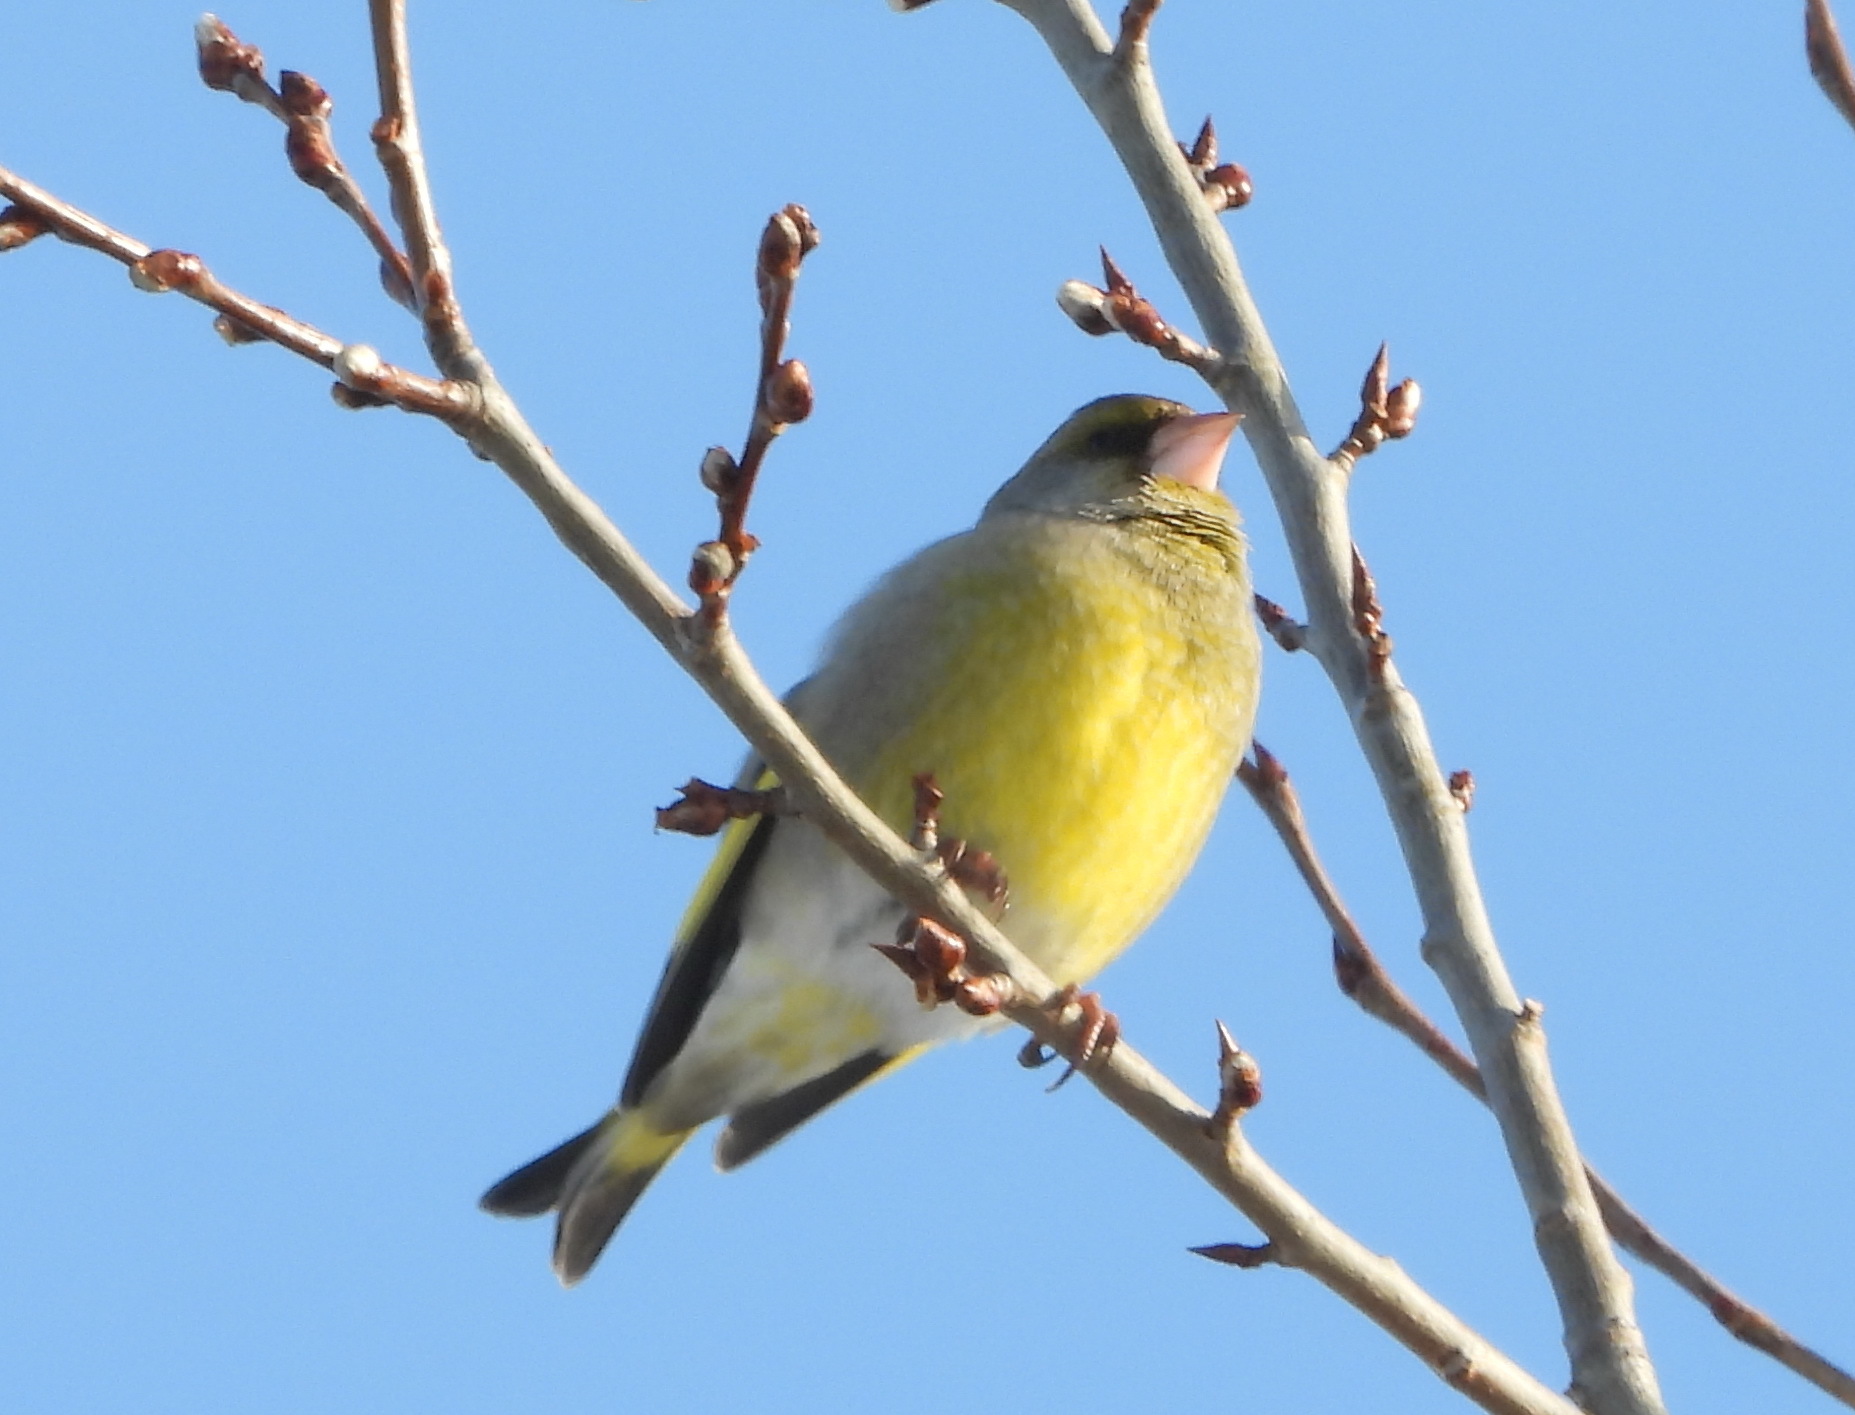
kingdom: Plantae
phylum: Tracheophyta
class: Liliopsida
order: Poales
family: Poaceae
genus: Chloris
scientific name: Chloris chloris
